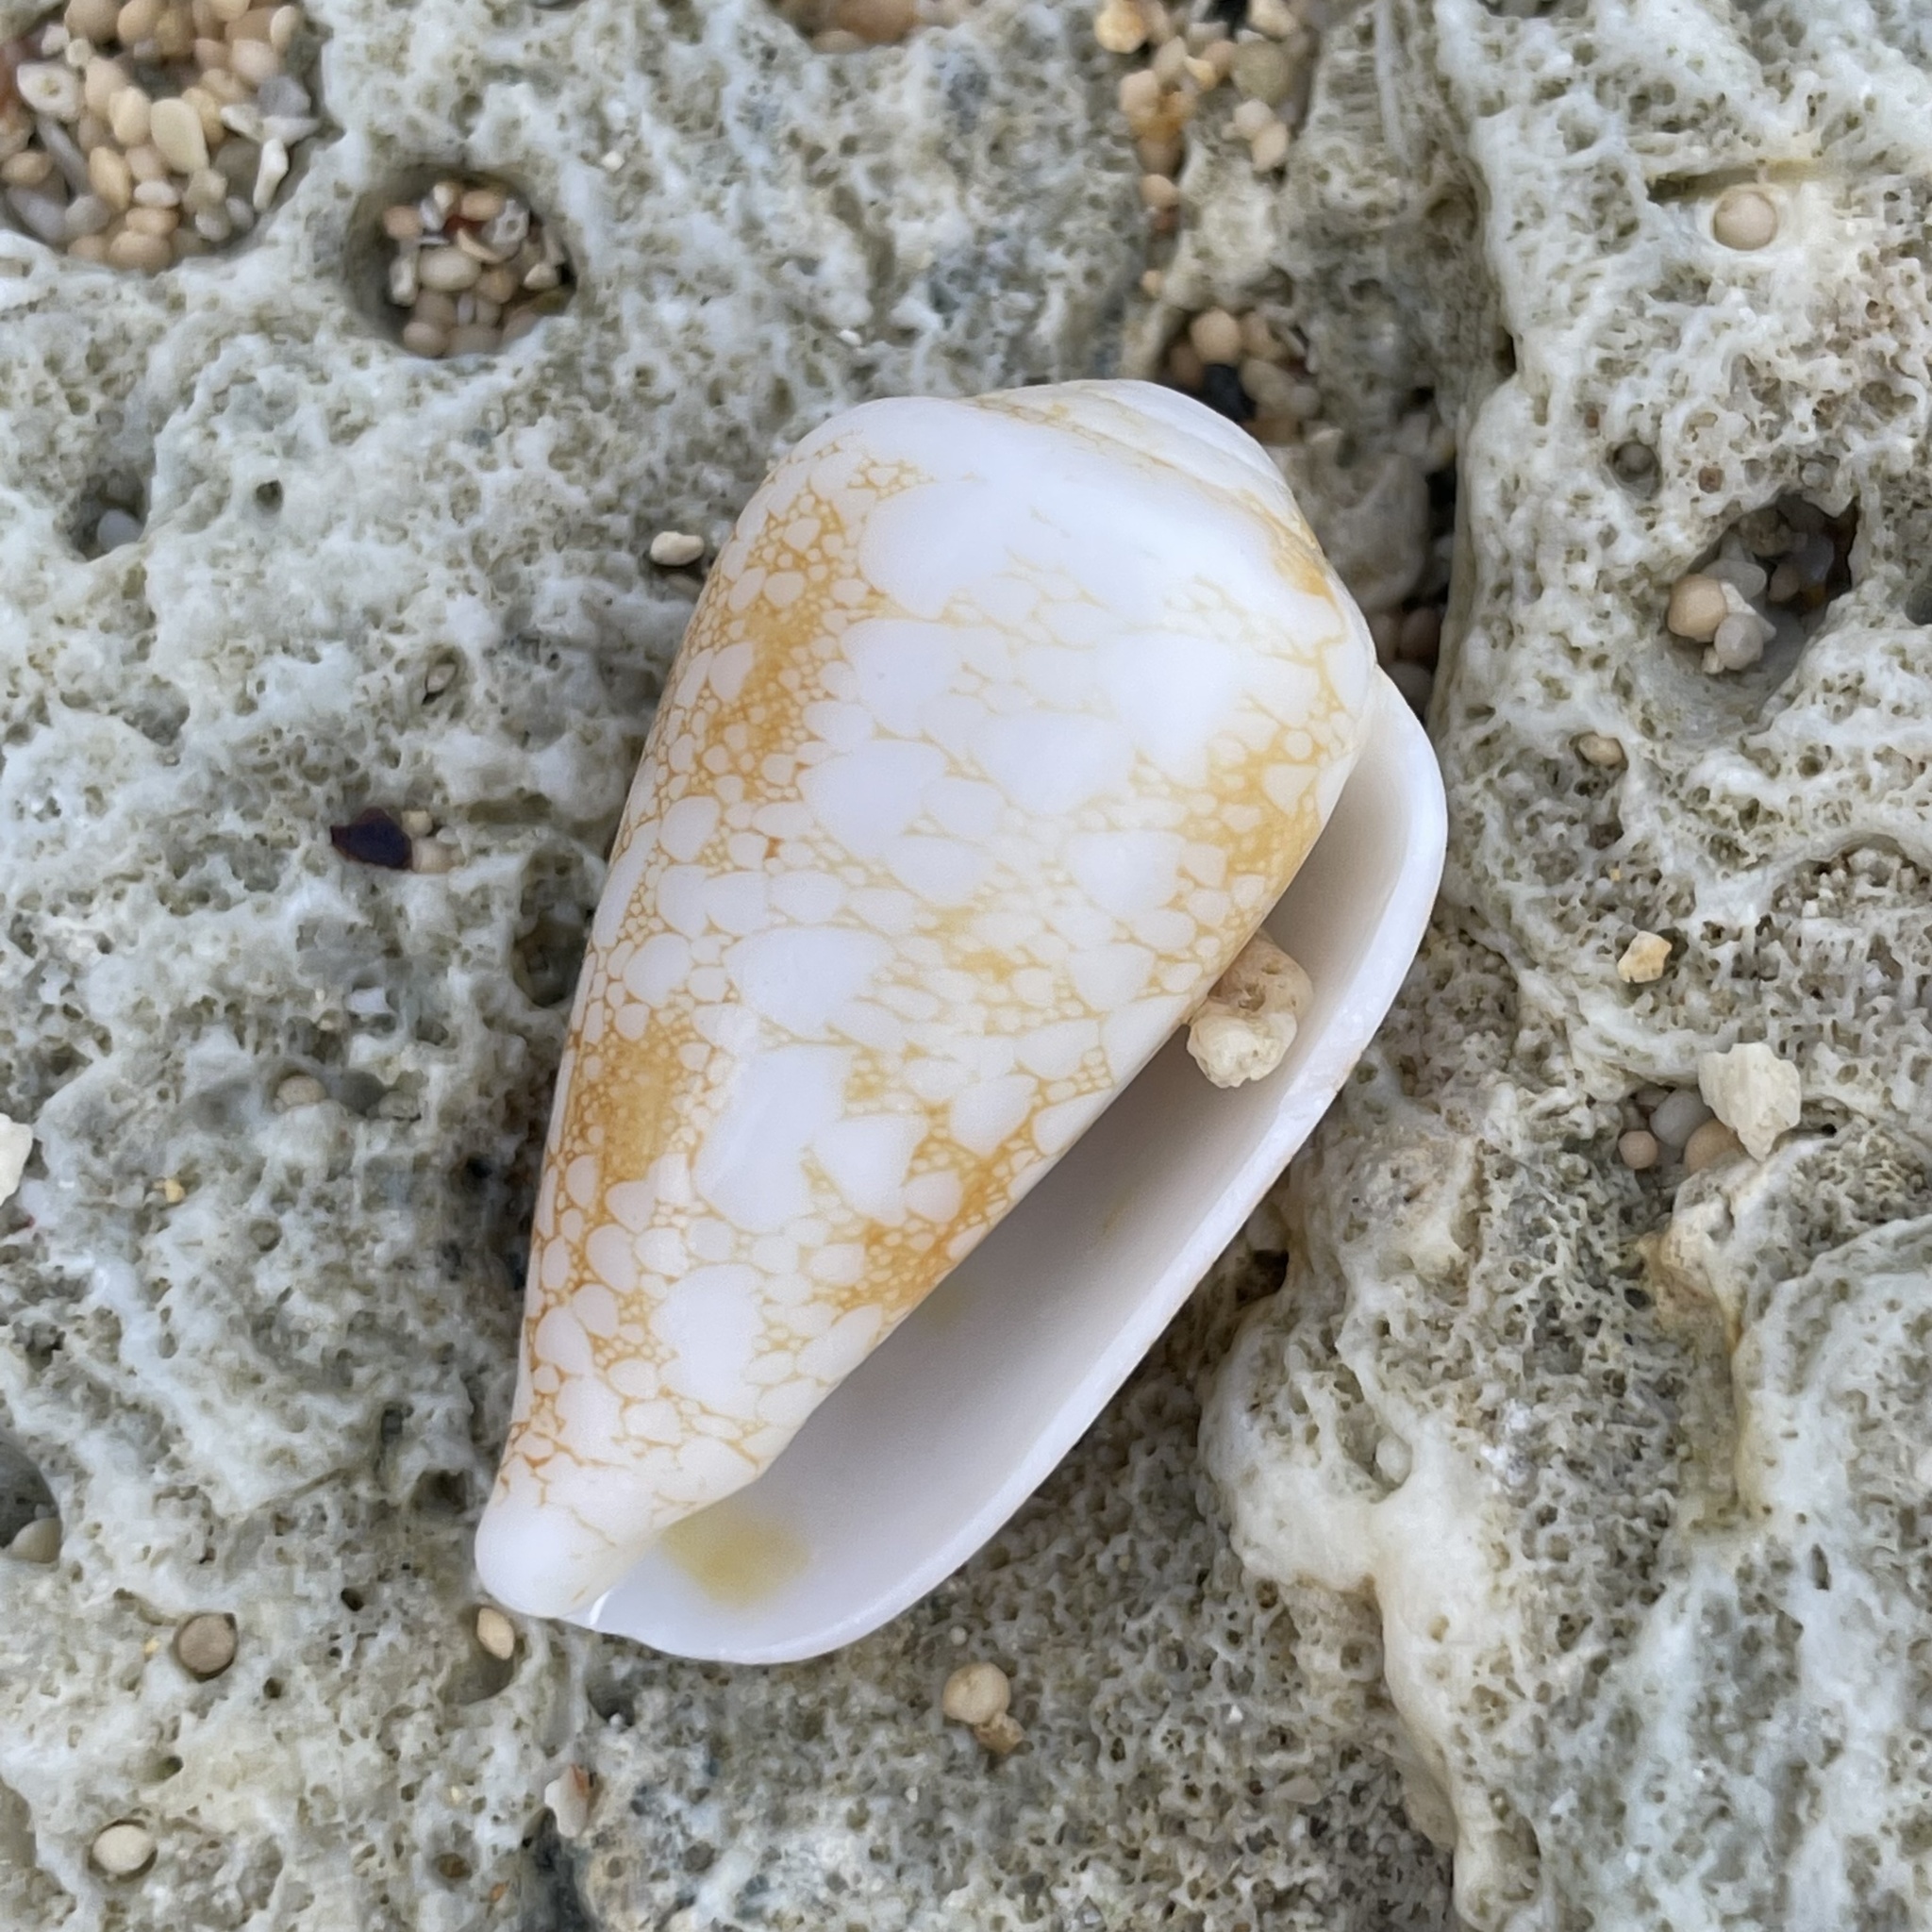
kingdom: Animalia
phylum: Mollusca
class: Gastropoda
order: Neogastropoda
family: Conidae
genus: Conus
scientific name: Conus omaria
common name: Omaria cone
